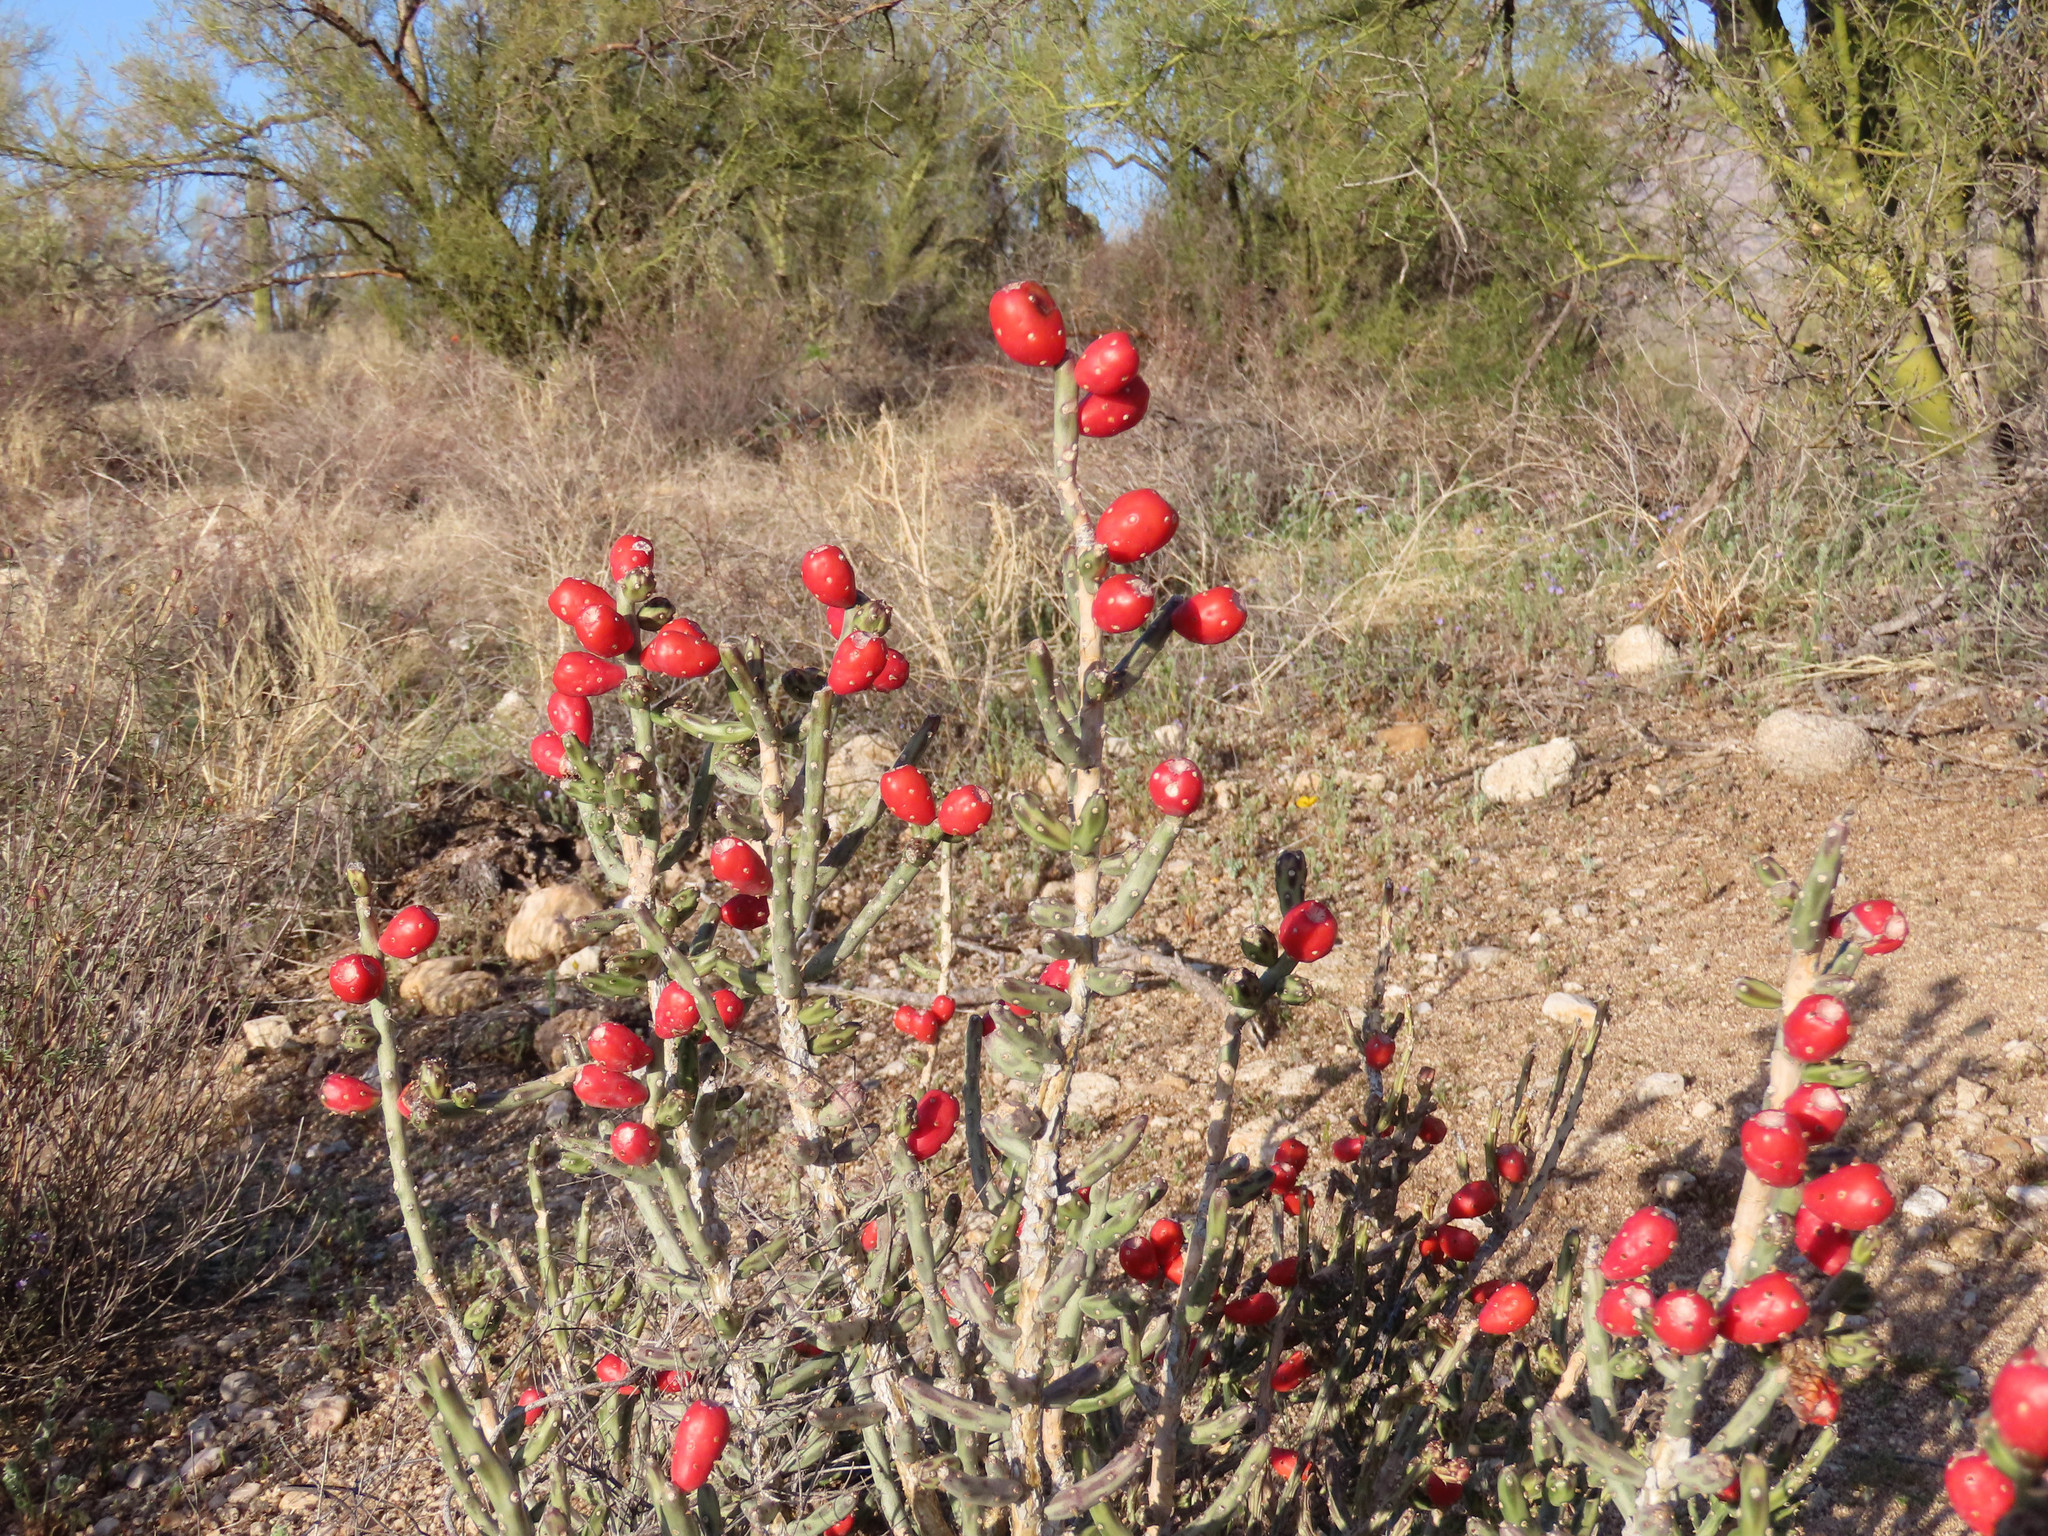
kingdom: Plantae
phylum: Tracheophyta
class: Magnoliopsida
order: Caryophyllales
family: Cactaceae
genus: Cylindropuntia
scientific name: Cylindropuntia leptocaulis
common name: Christmas cactus
